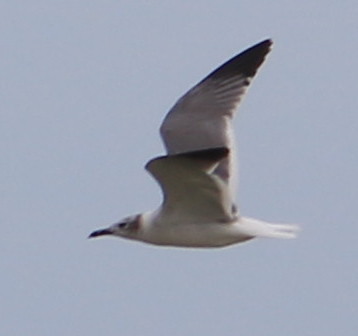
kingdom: Animalia
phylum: Chordata
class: Aves
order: Charadriiformes
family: Laridae
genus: Leucophaeus
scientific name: Leucophaeus atricilla
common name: Laughing gull
